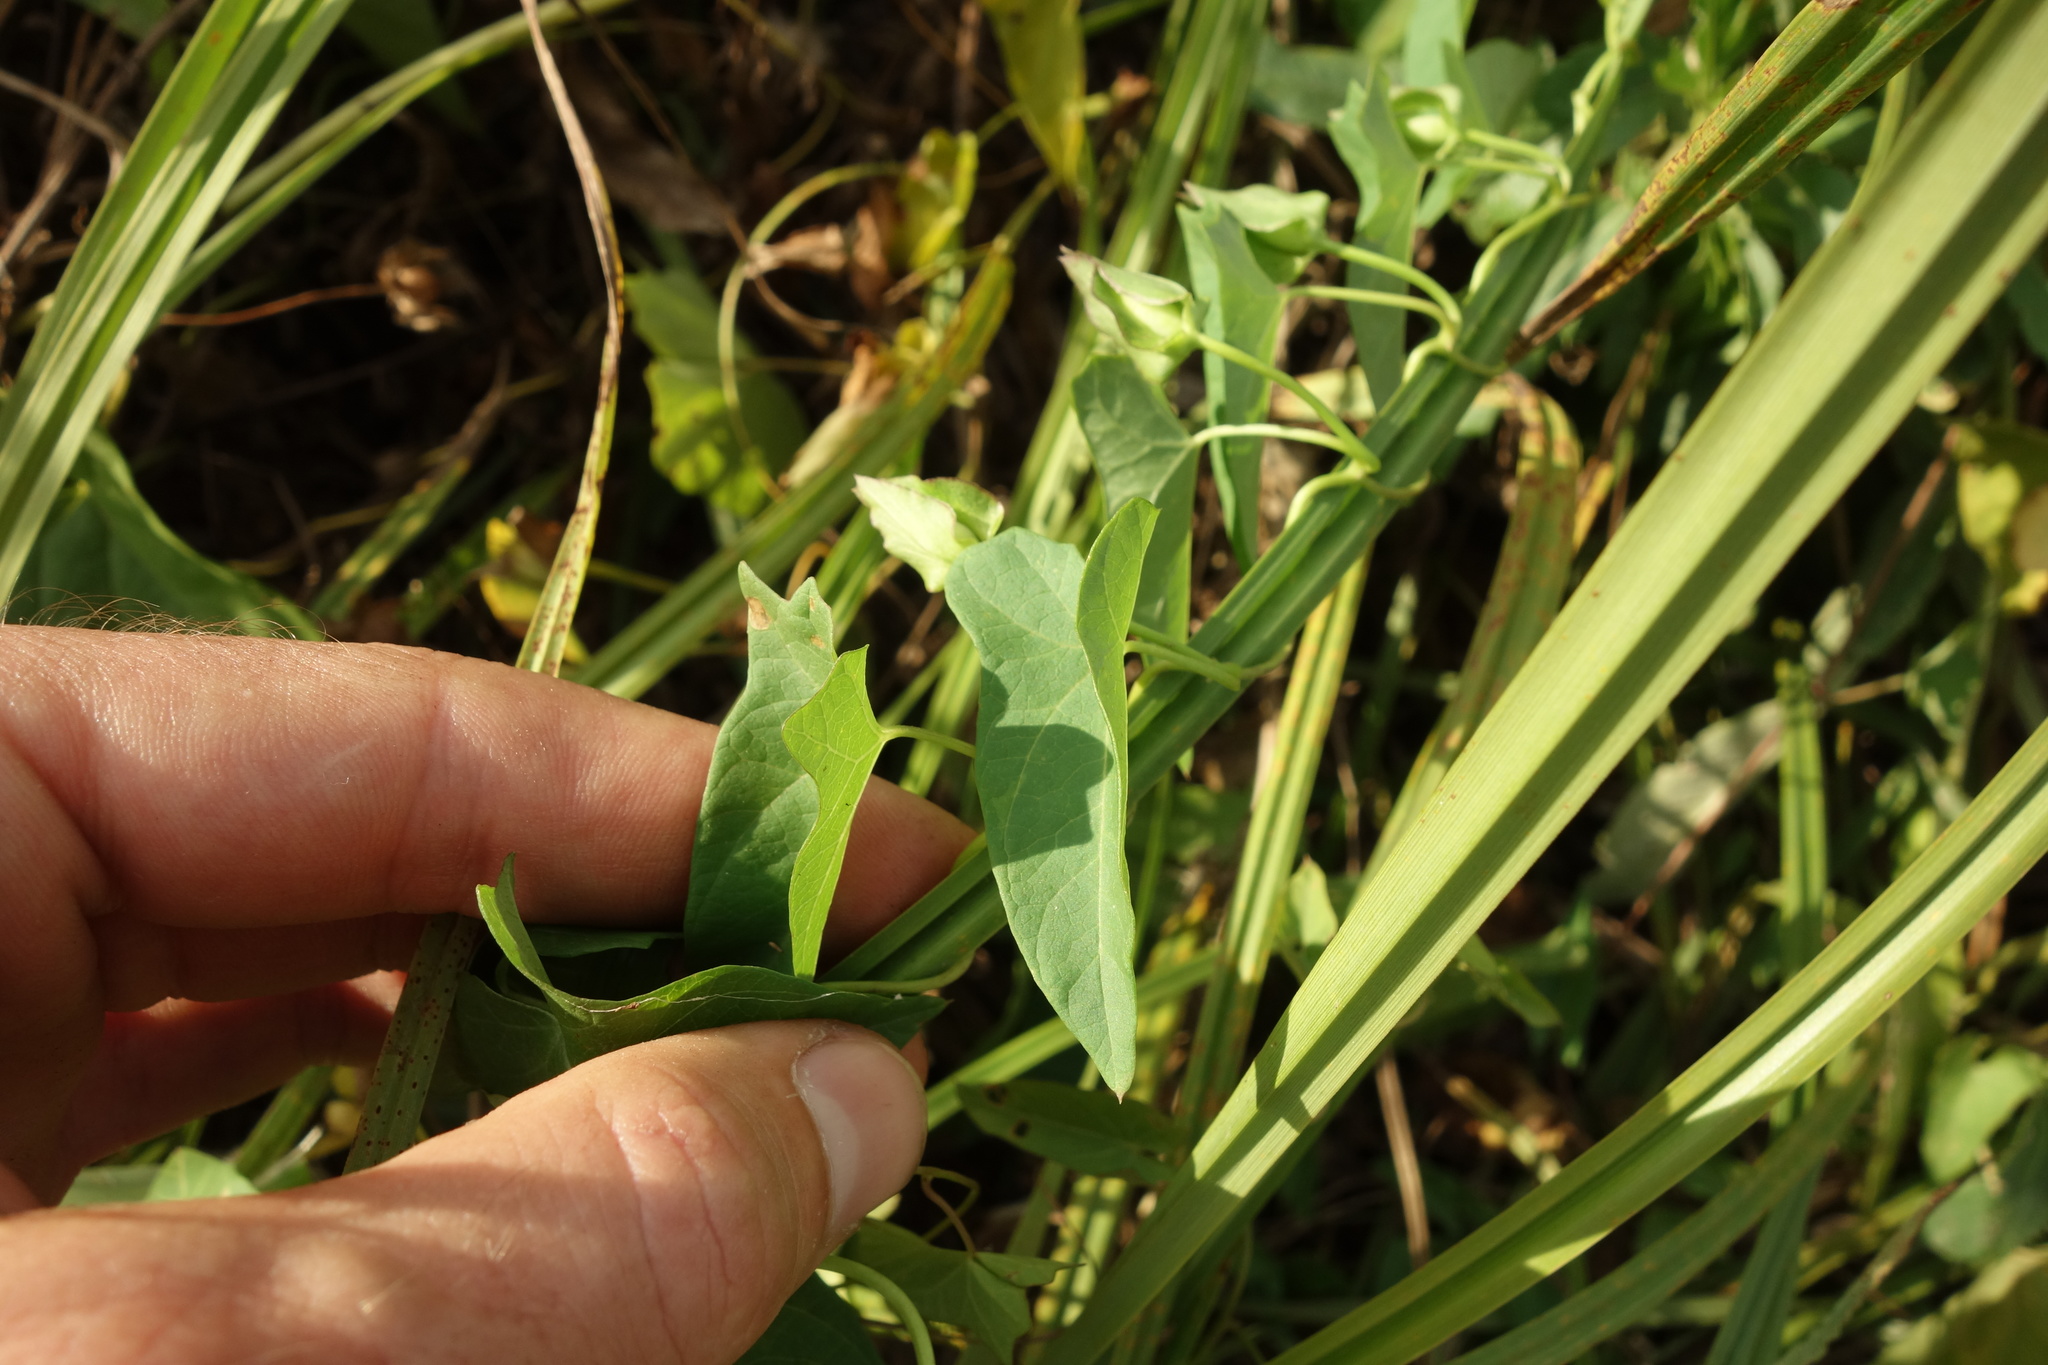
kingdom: Plantae
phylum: Tracheophyta
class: Magnoliopsida
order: Solanales
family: Convolvulaceae
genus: Calystegia
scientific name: Calystegia sepium
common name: Hedge bindweed
